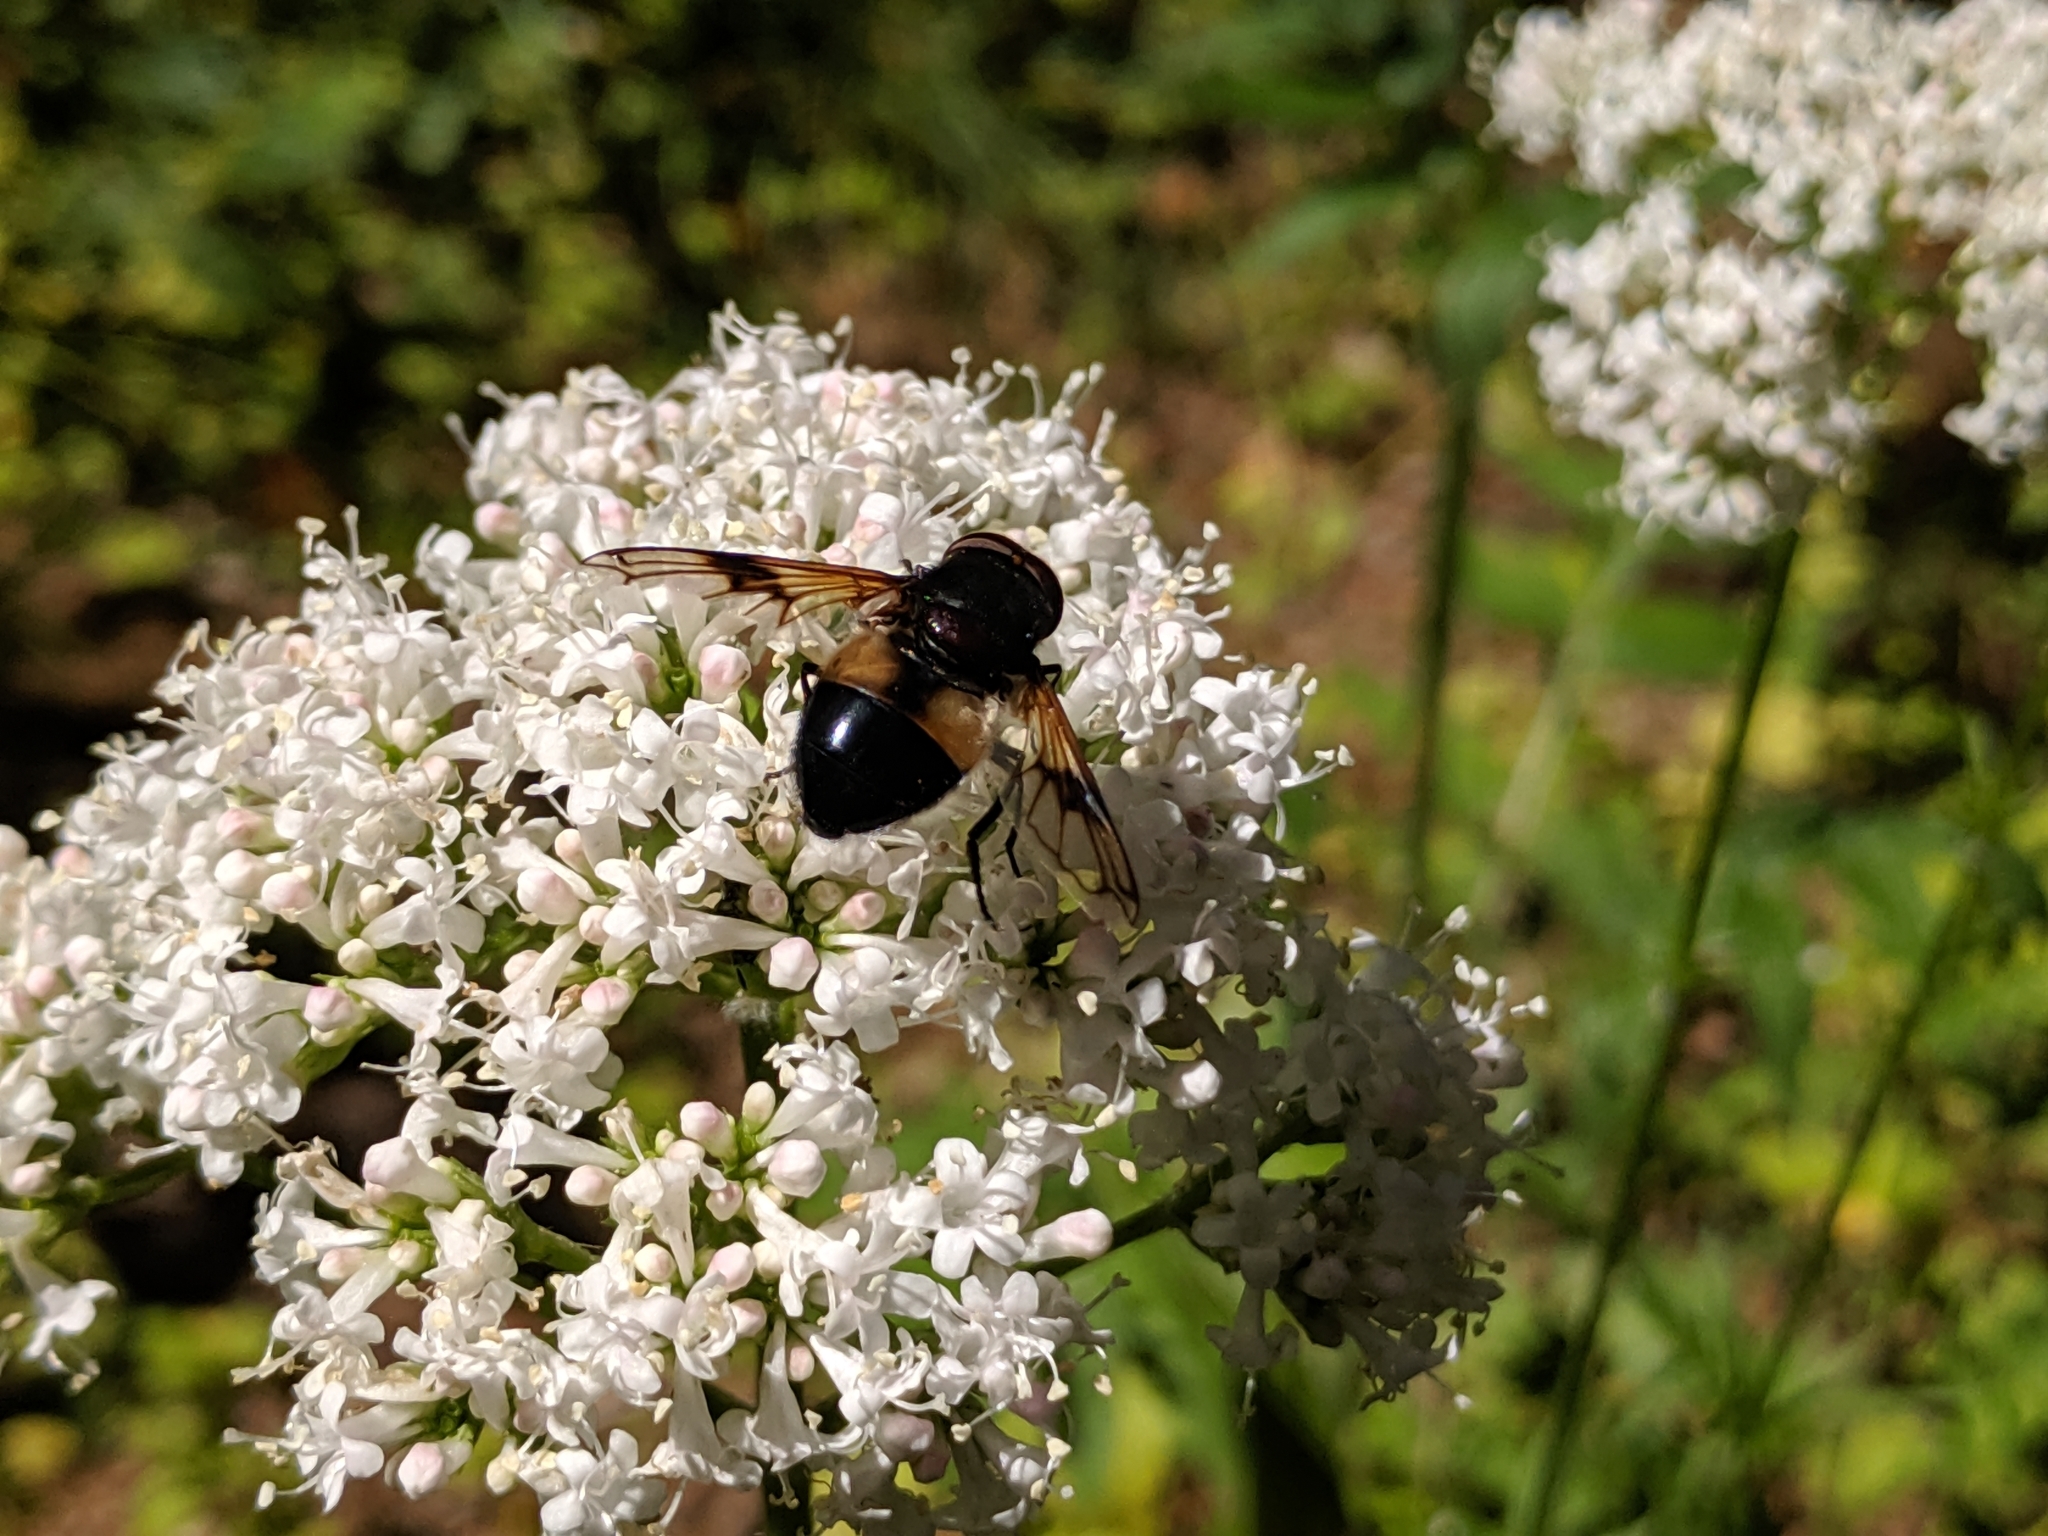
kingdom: Animalia
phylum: Arthropoda
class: Insecta
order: Diptera
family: Syrphidae
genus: Volucella
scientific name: Volucella pellucens
